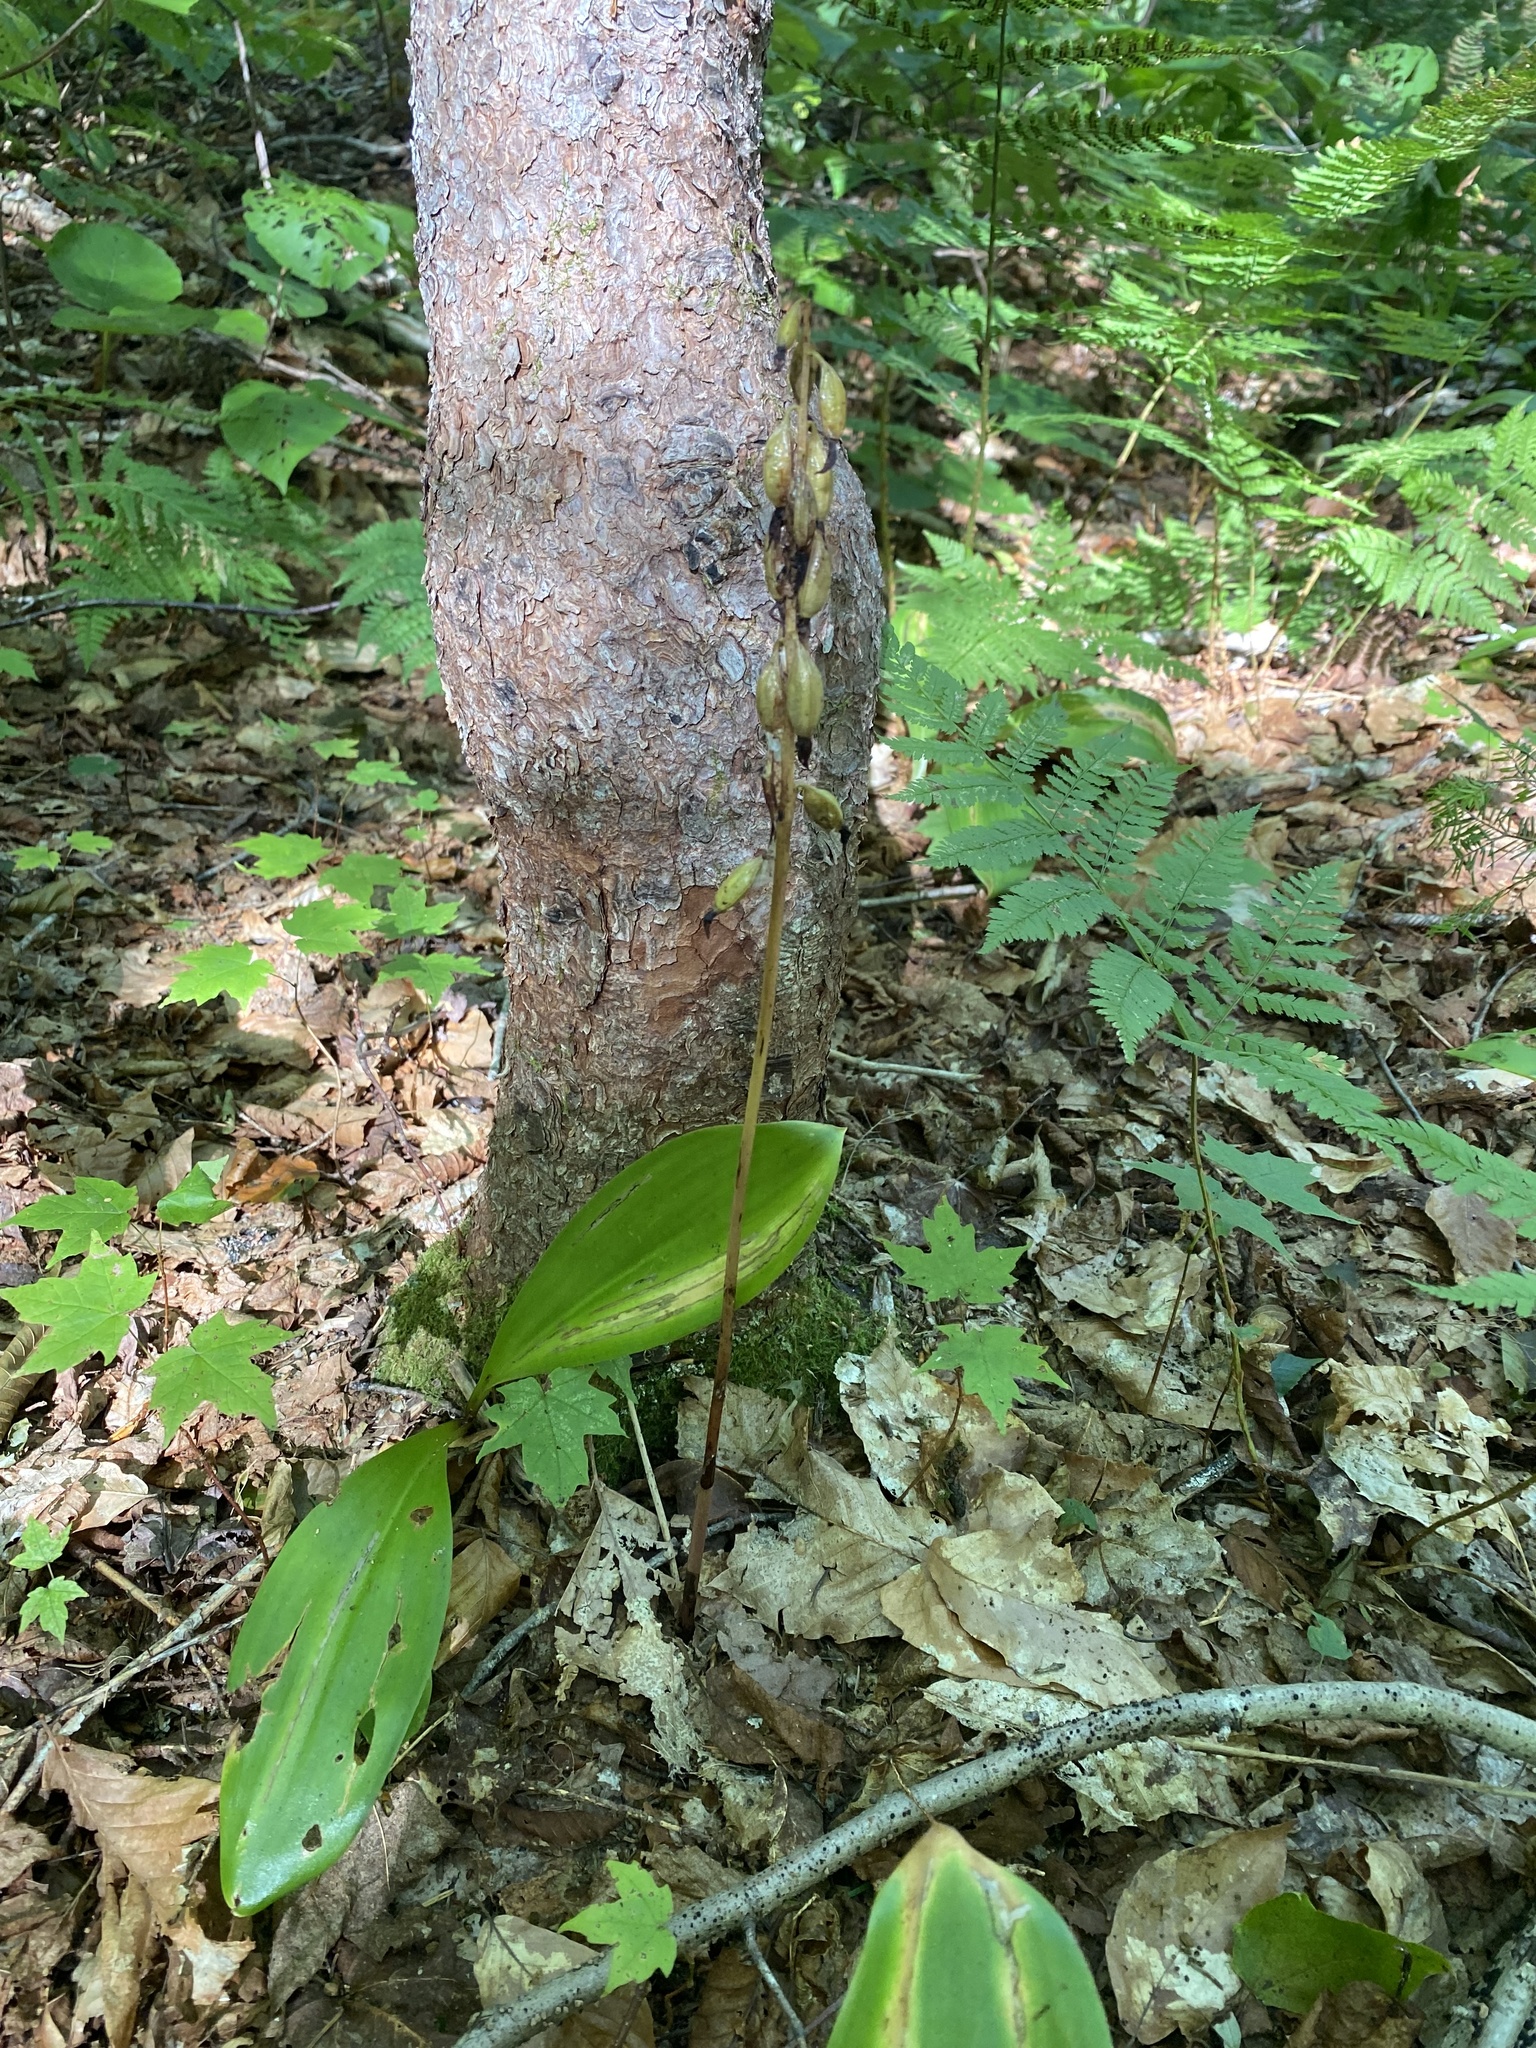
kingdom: Plantae
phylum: Tracheophyta
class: Liliopsida
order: Asparagales
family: Orchidaceae
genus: Corallorhiza
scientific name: Corallorhiza trifida
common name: Yellow coralroot
